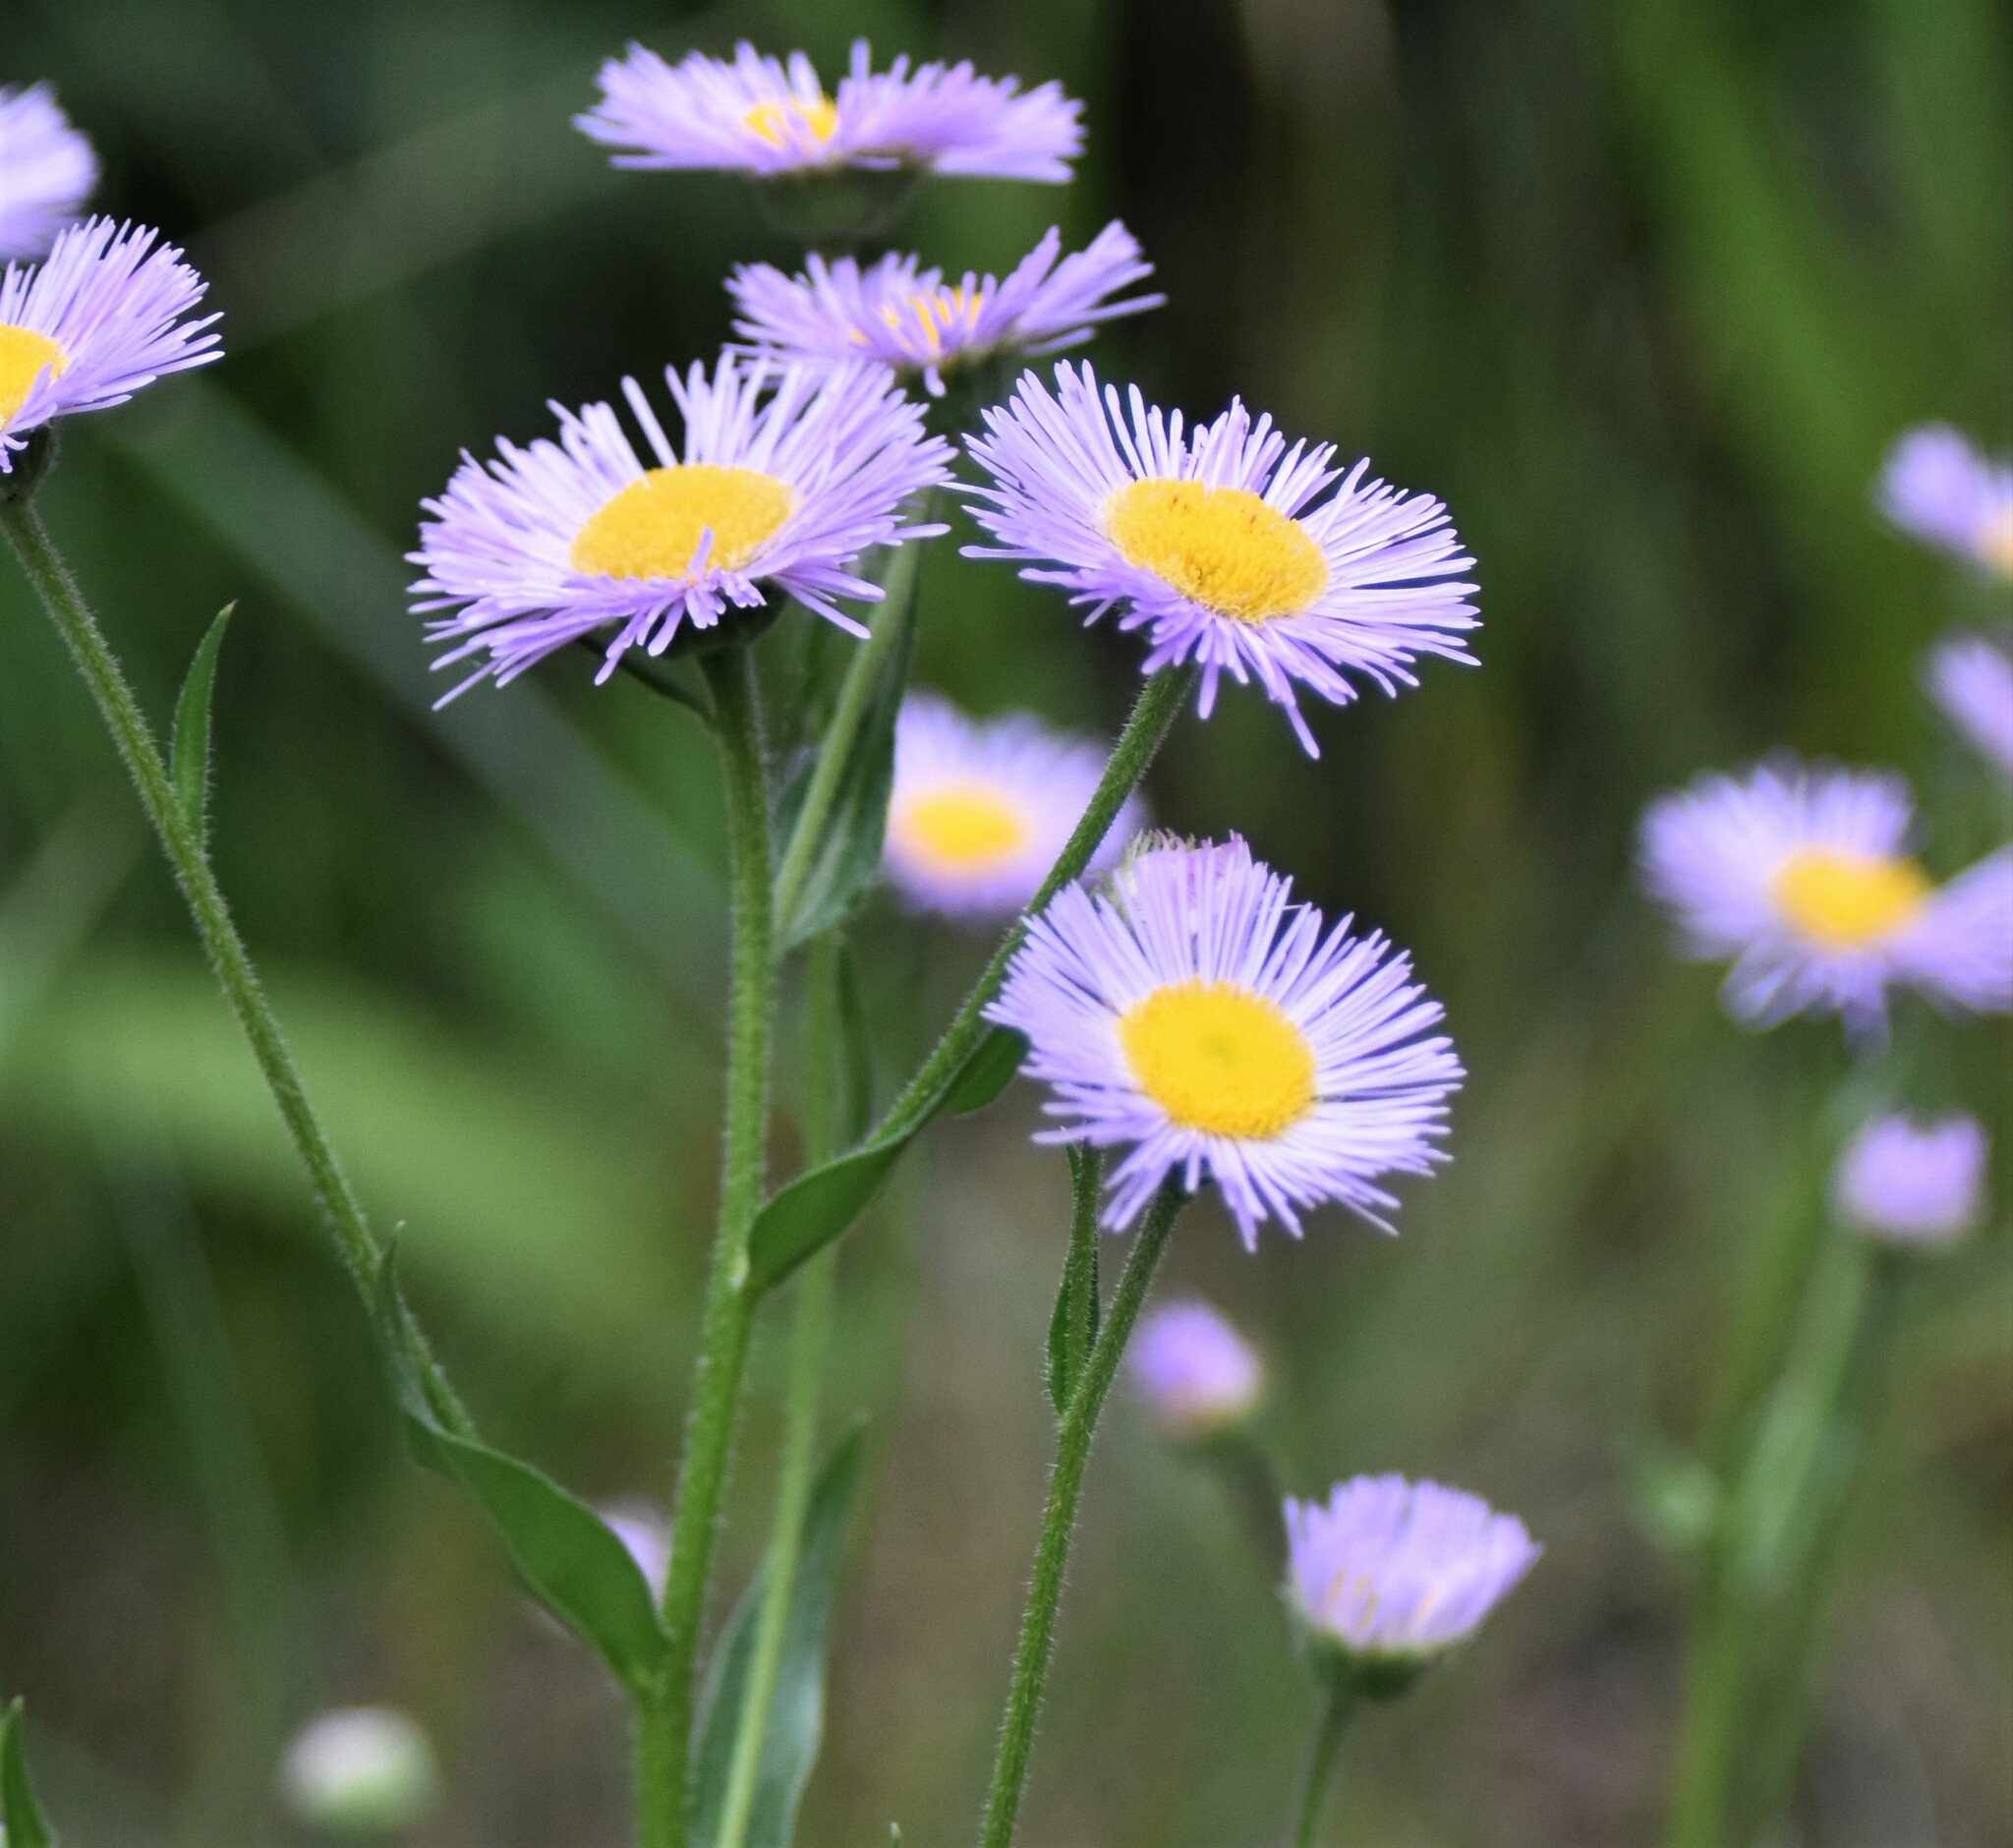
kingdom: Plantae
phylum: Tracheophyta
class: Magnoliopsida
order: Asterales
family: Asteraceae
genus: Erigeron
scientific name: Erigeron glabellus
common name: Smooth fleabane
